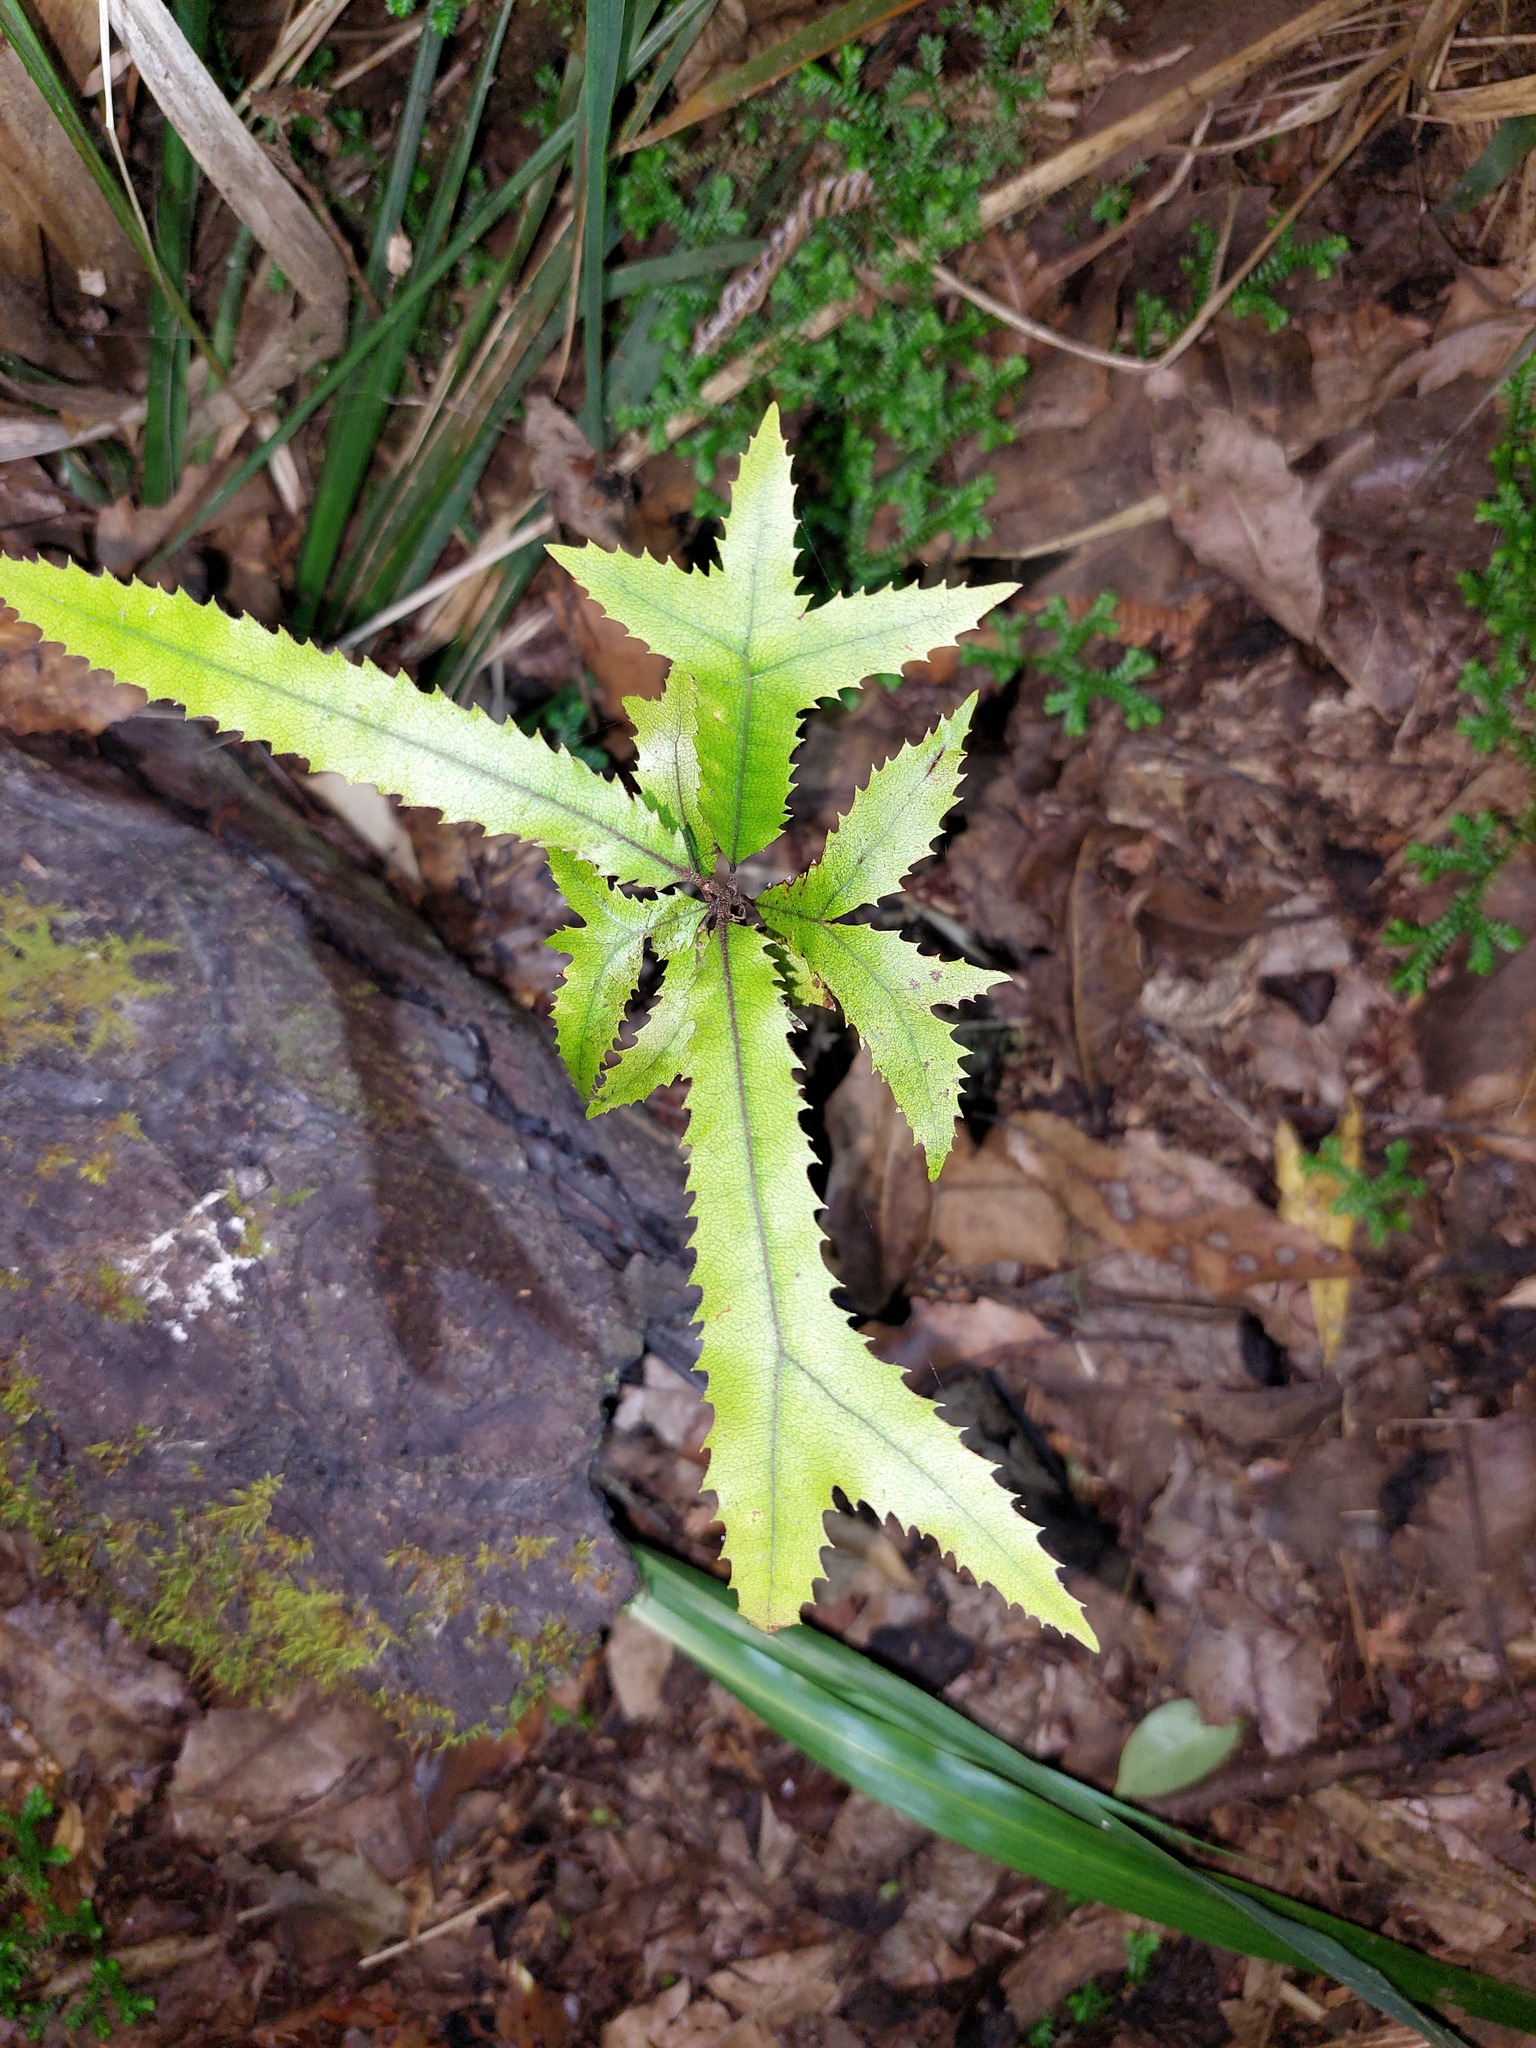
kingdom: Plantae
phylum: Tracheophyta
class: Magnoliopsida
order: Proteales
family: Proteaceae
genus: Knightia
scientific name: Knightia excelsa
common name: New zealand-honeysuckle
